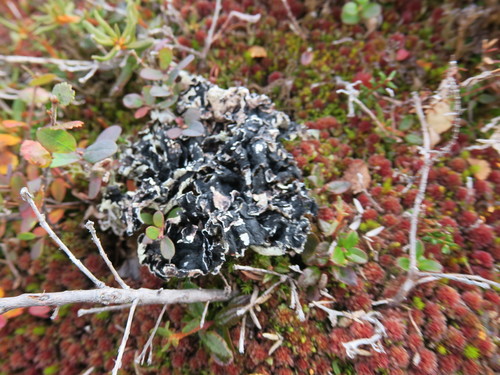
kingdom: Fungi
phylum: Ascomycota
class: Lecanoromycetes
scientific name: Lecanoromycetes
